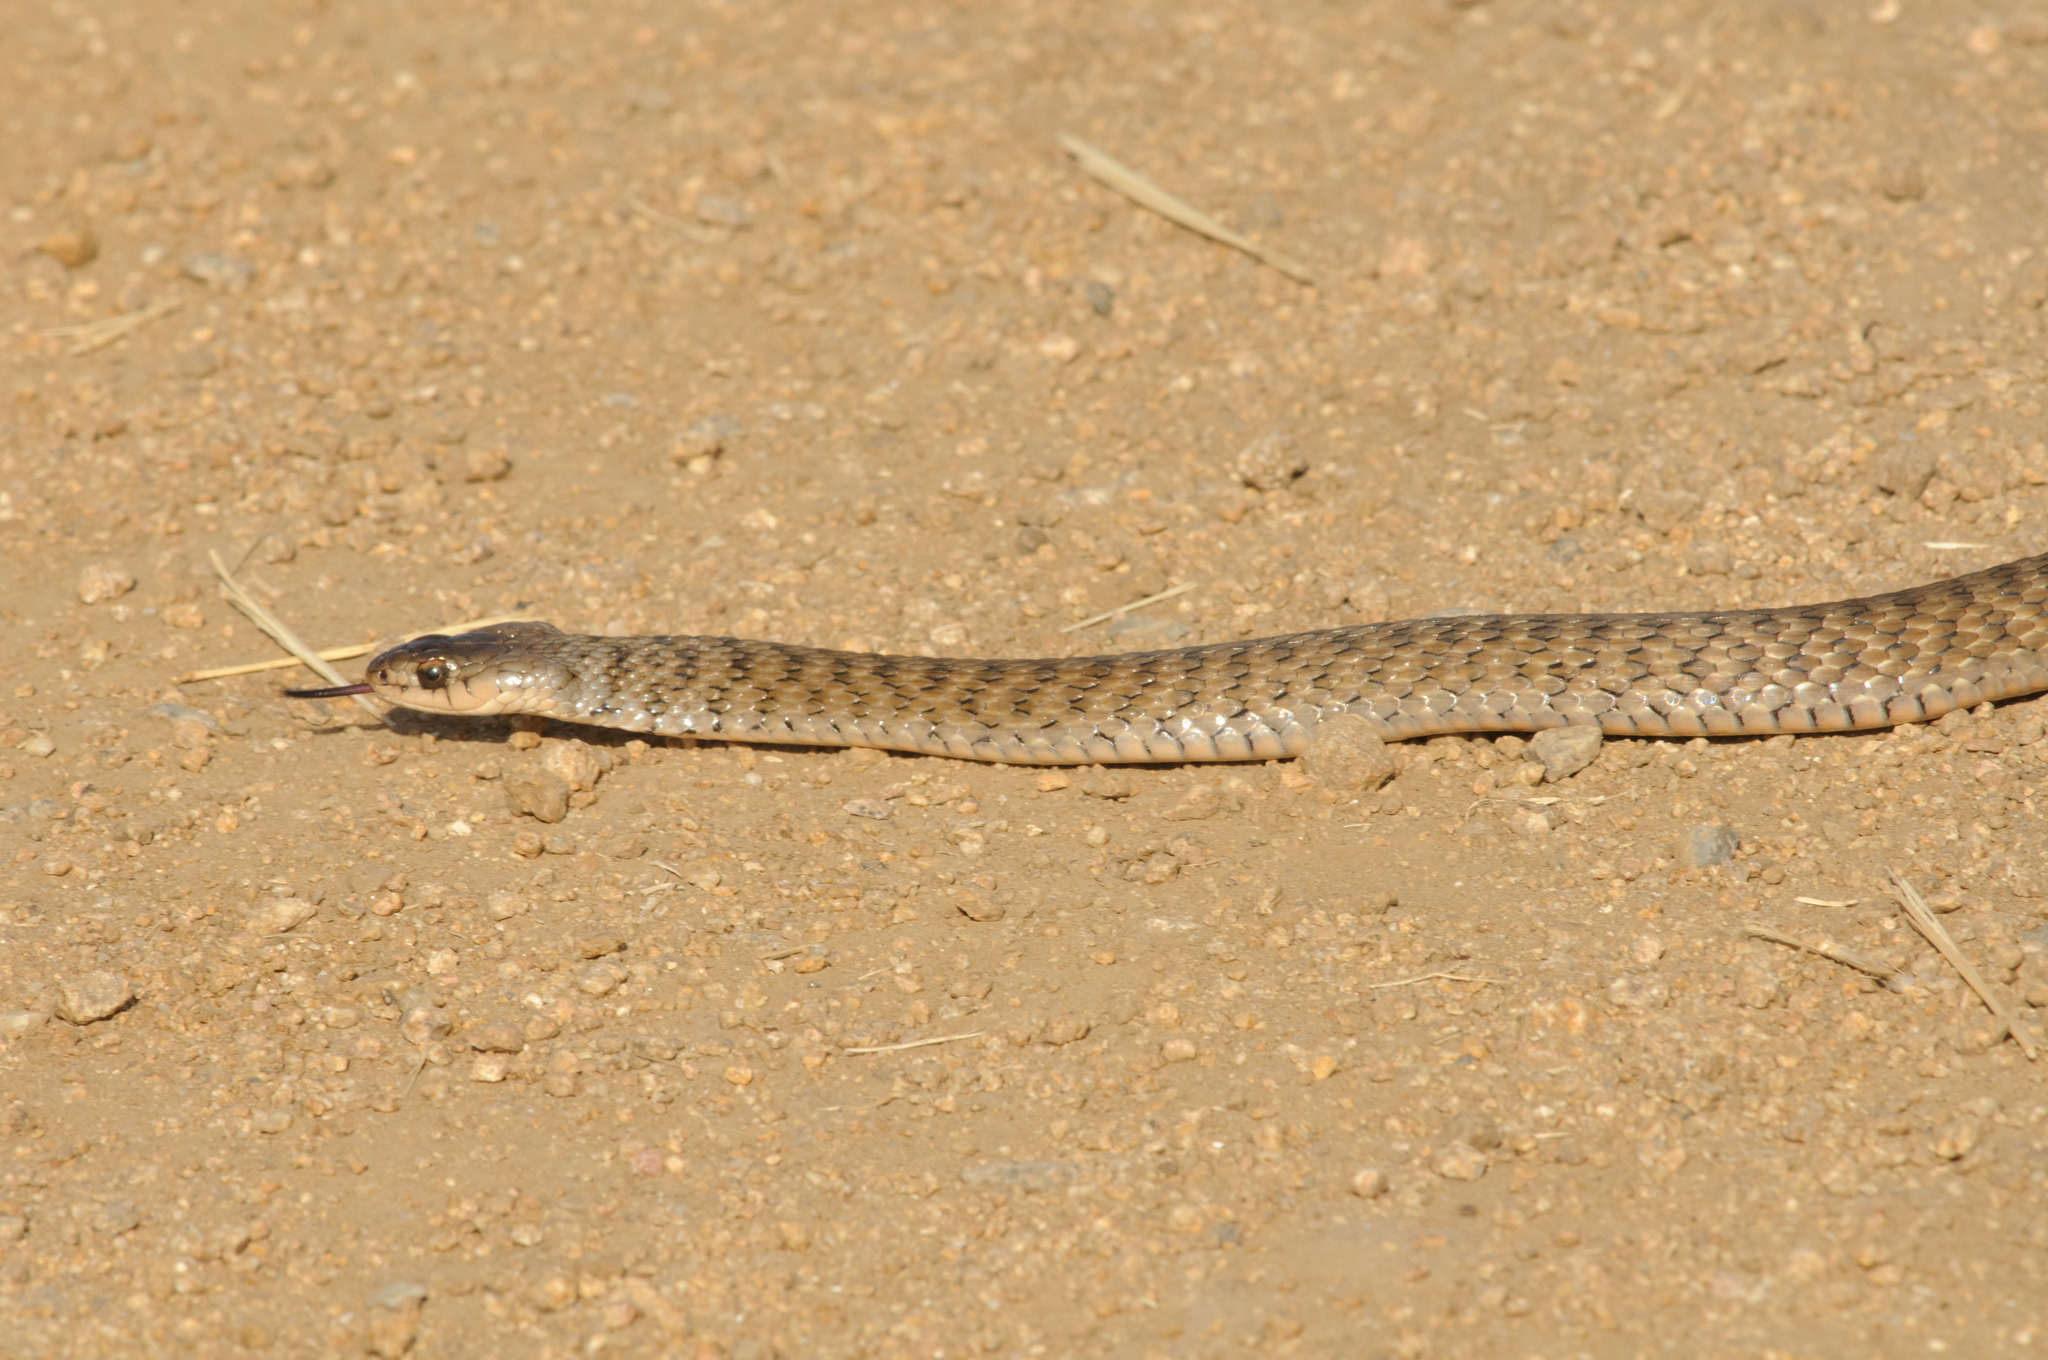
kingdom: Animalia
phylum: Chordata
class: Squamata
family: Colubridae
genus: Tropidonophis
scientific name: Tropidonophis mairii
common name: Common keelback
